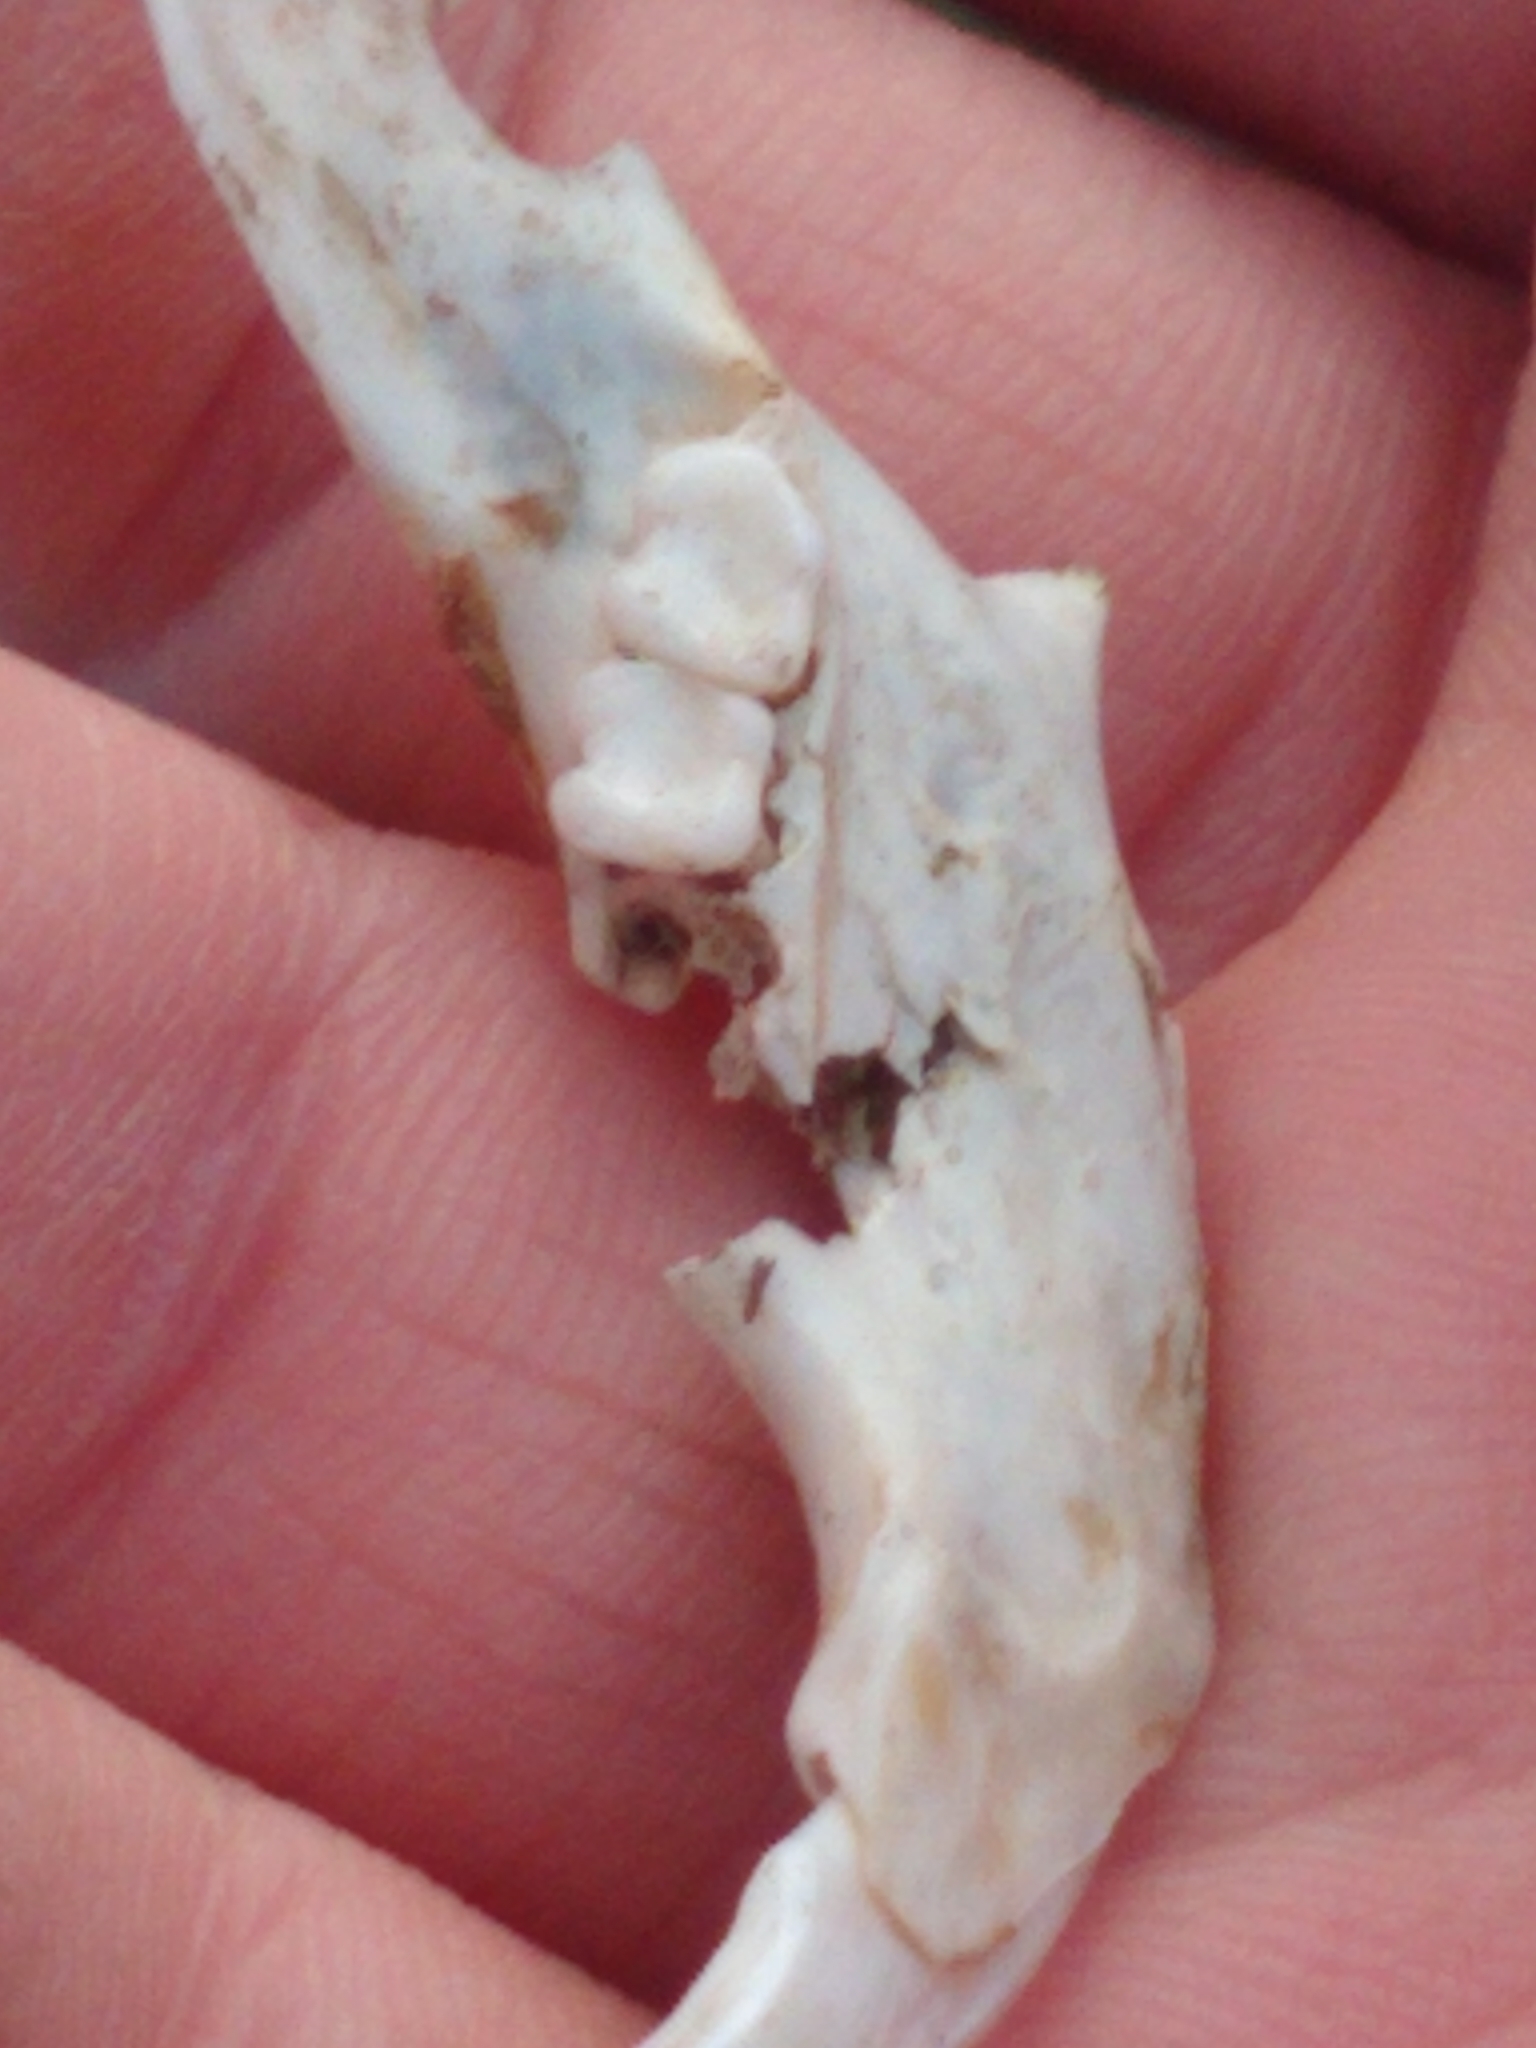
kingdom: Animalia
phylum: Chordata
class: Mammalia
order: Rodentia
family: Sciuridae
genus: Sciurus
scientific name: Sciurus carolinensis
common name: Eastern gray squirrel
